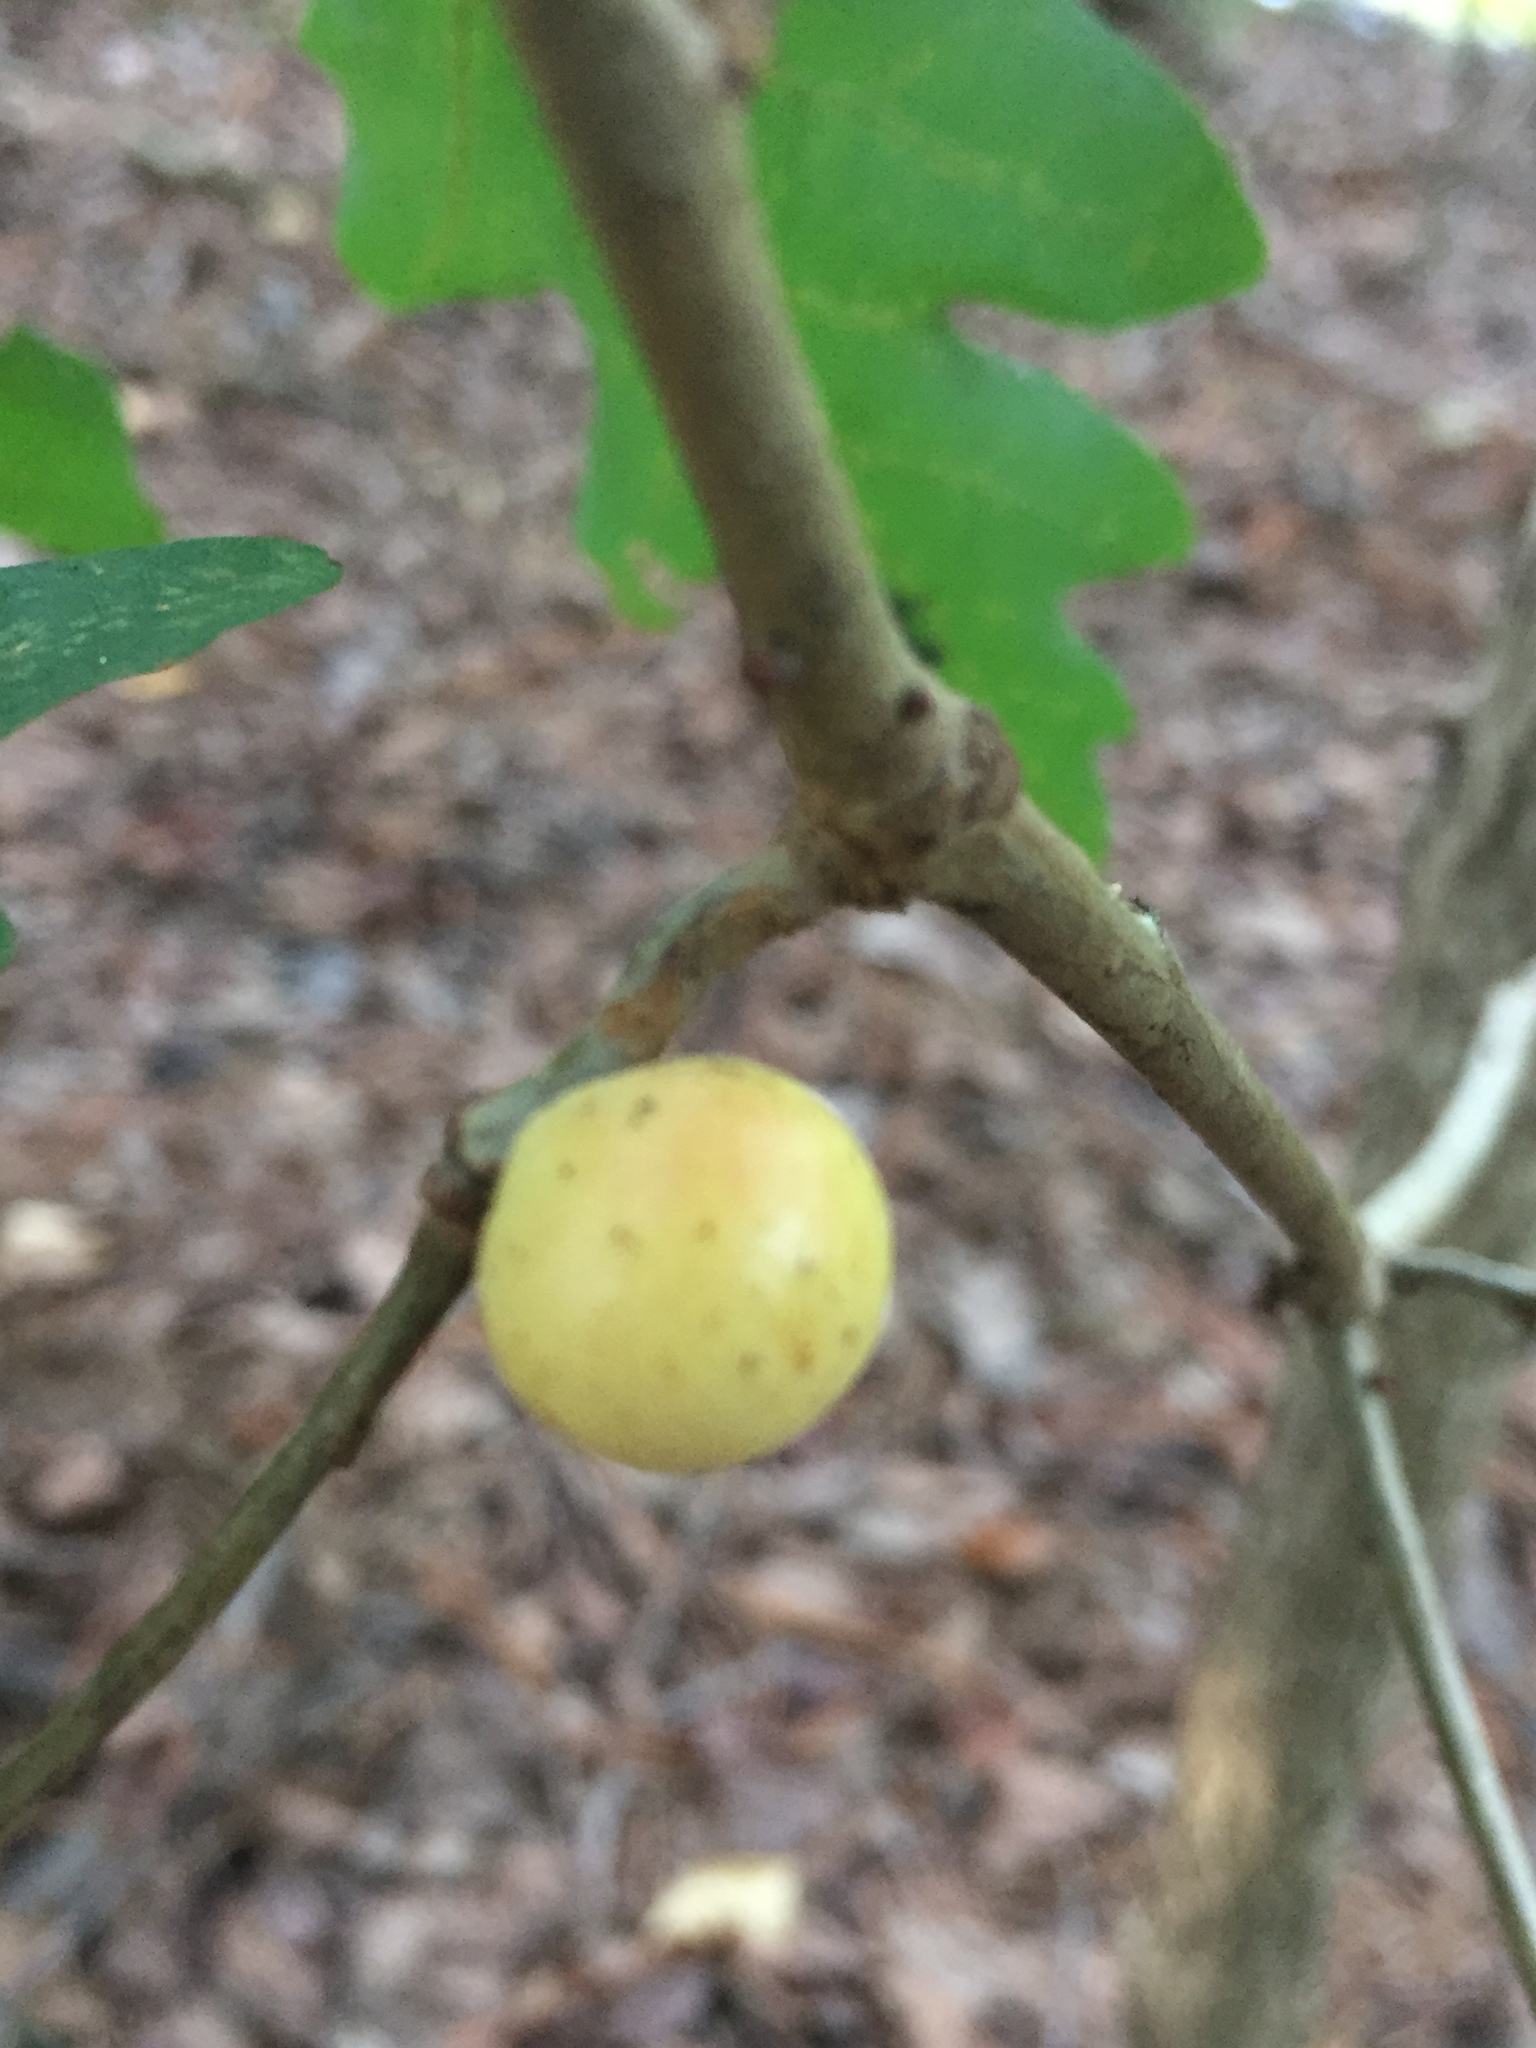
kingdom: Animalia
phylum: Arthropoda
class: Insecta
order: Hymenoptera
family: Cynipidae
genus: Disholcaspis
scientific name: Disholcaspis quercusglobulus
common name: Round bullet gall wasp
